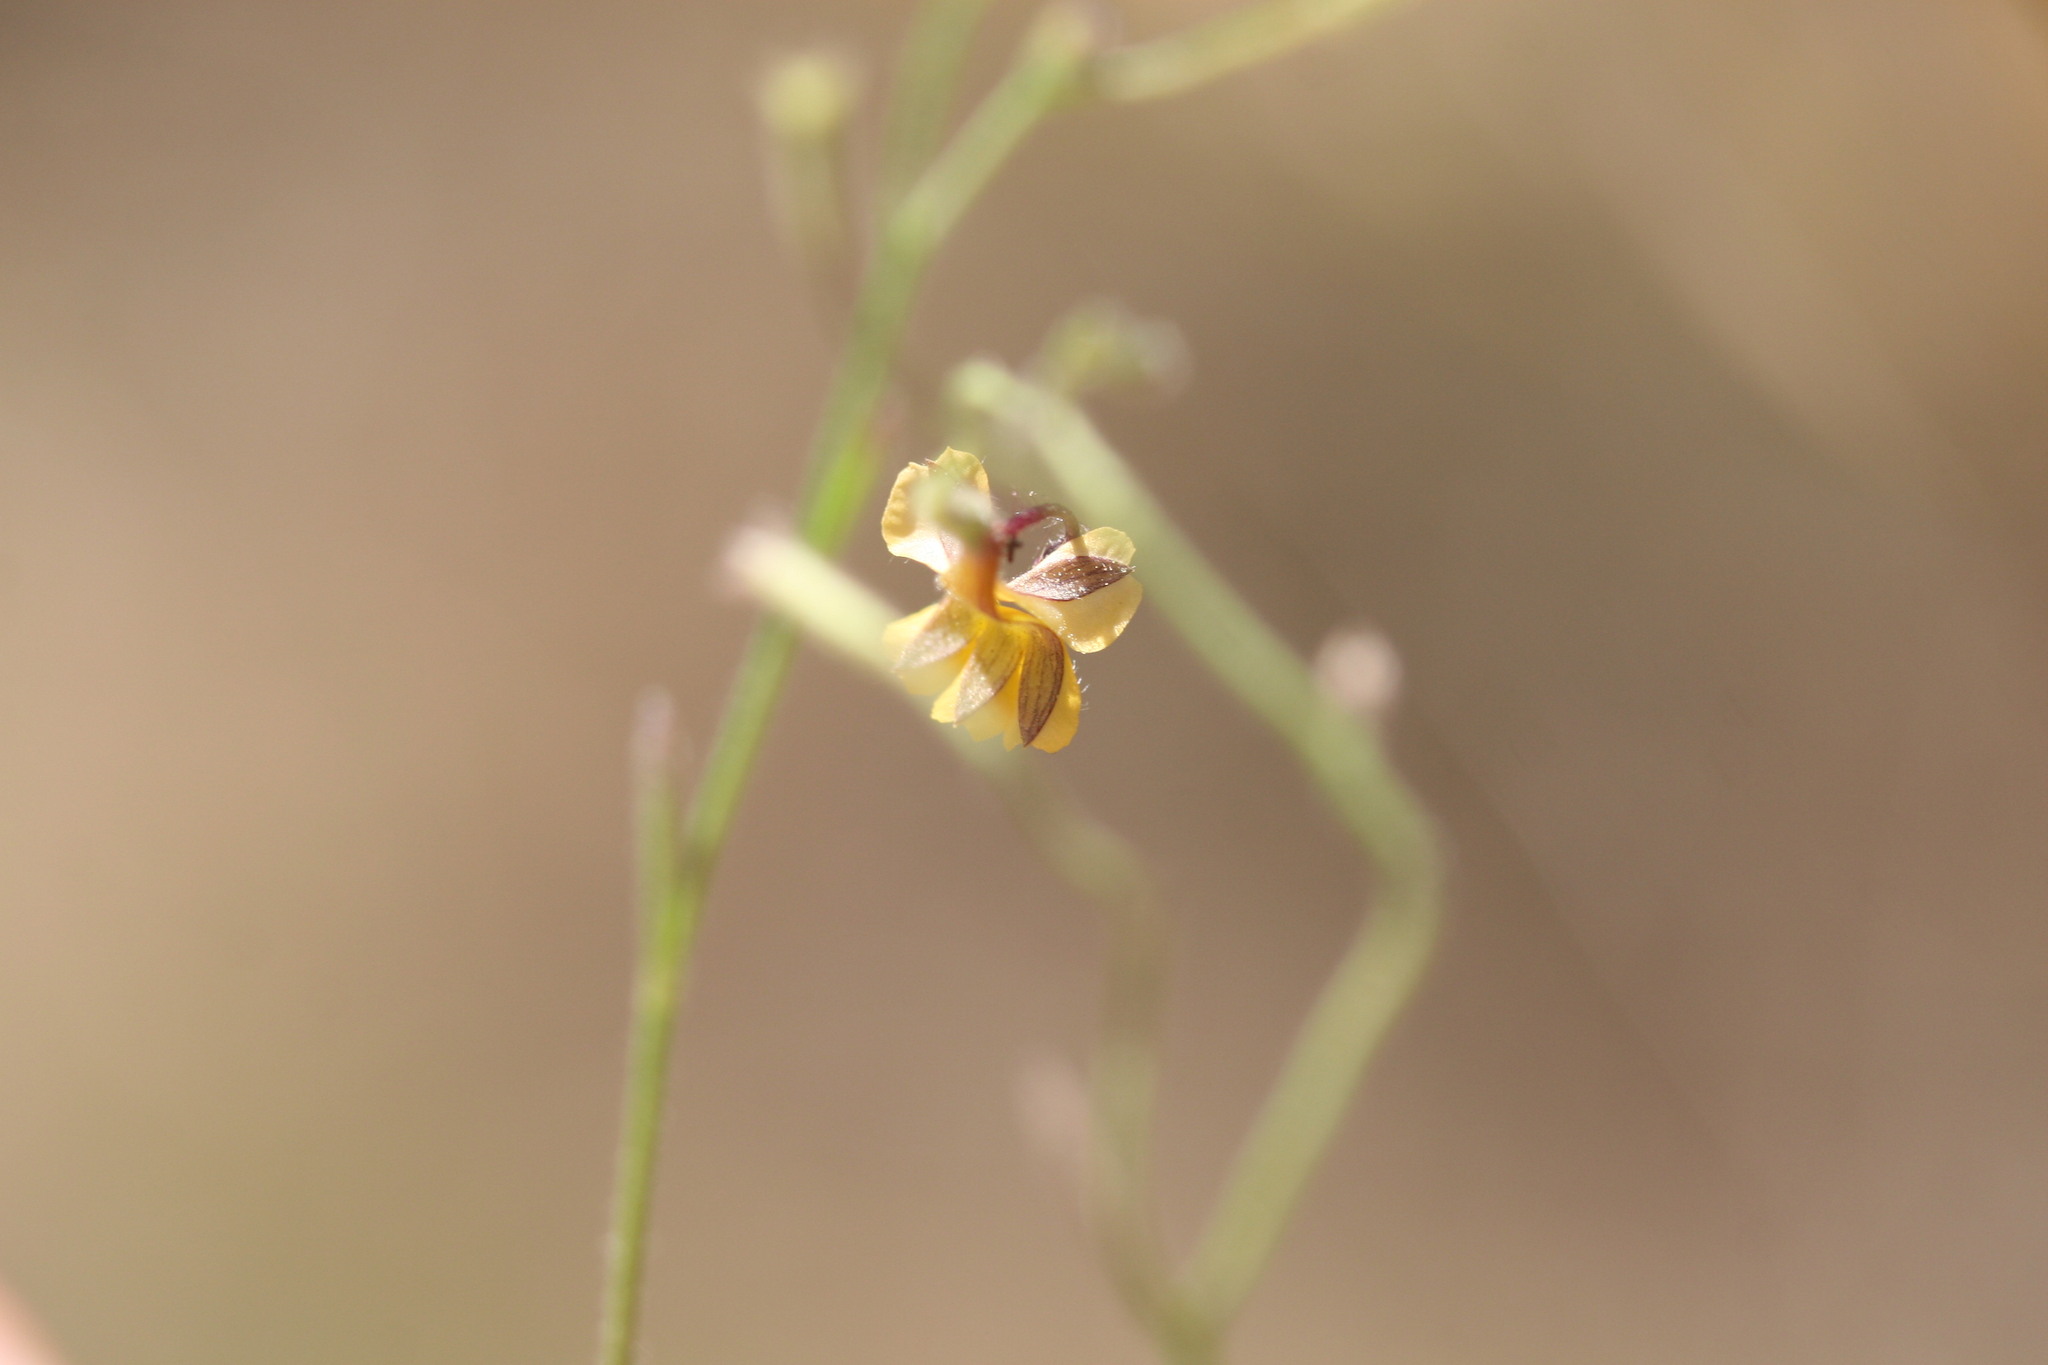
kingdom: Plantae
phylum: Tracheophyta
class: Magnoliopsida
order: Asterales
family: Goodeniaceae
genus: Goodenia
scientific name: Goodenia bicolor
